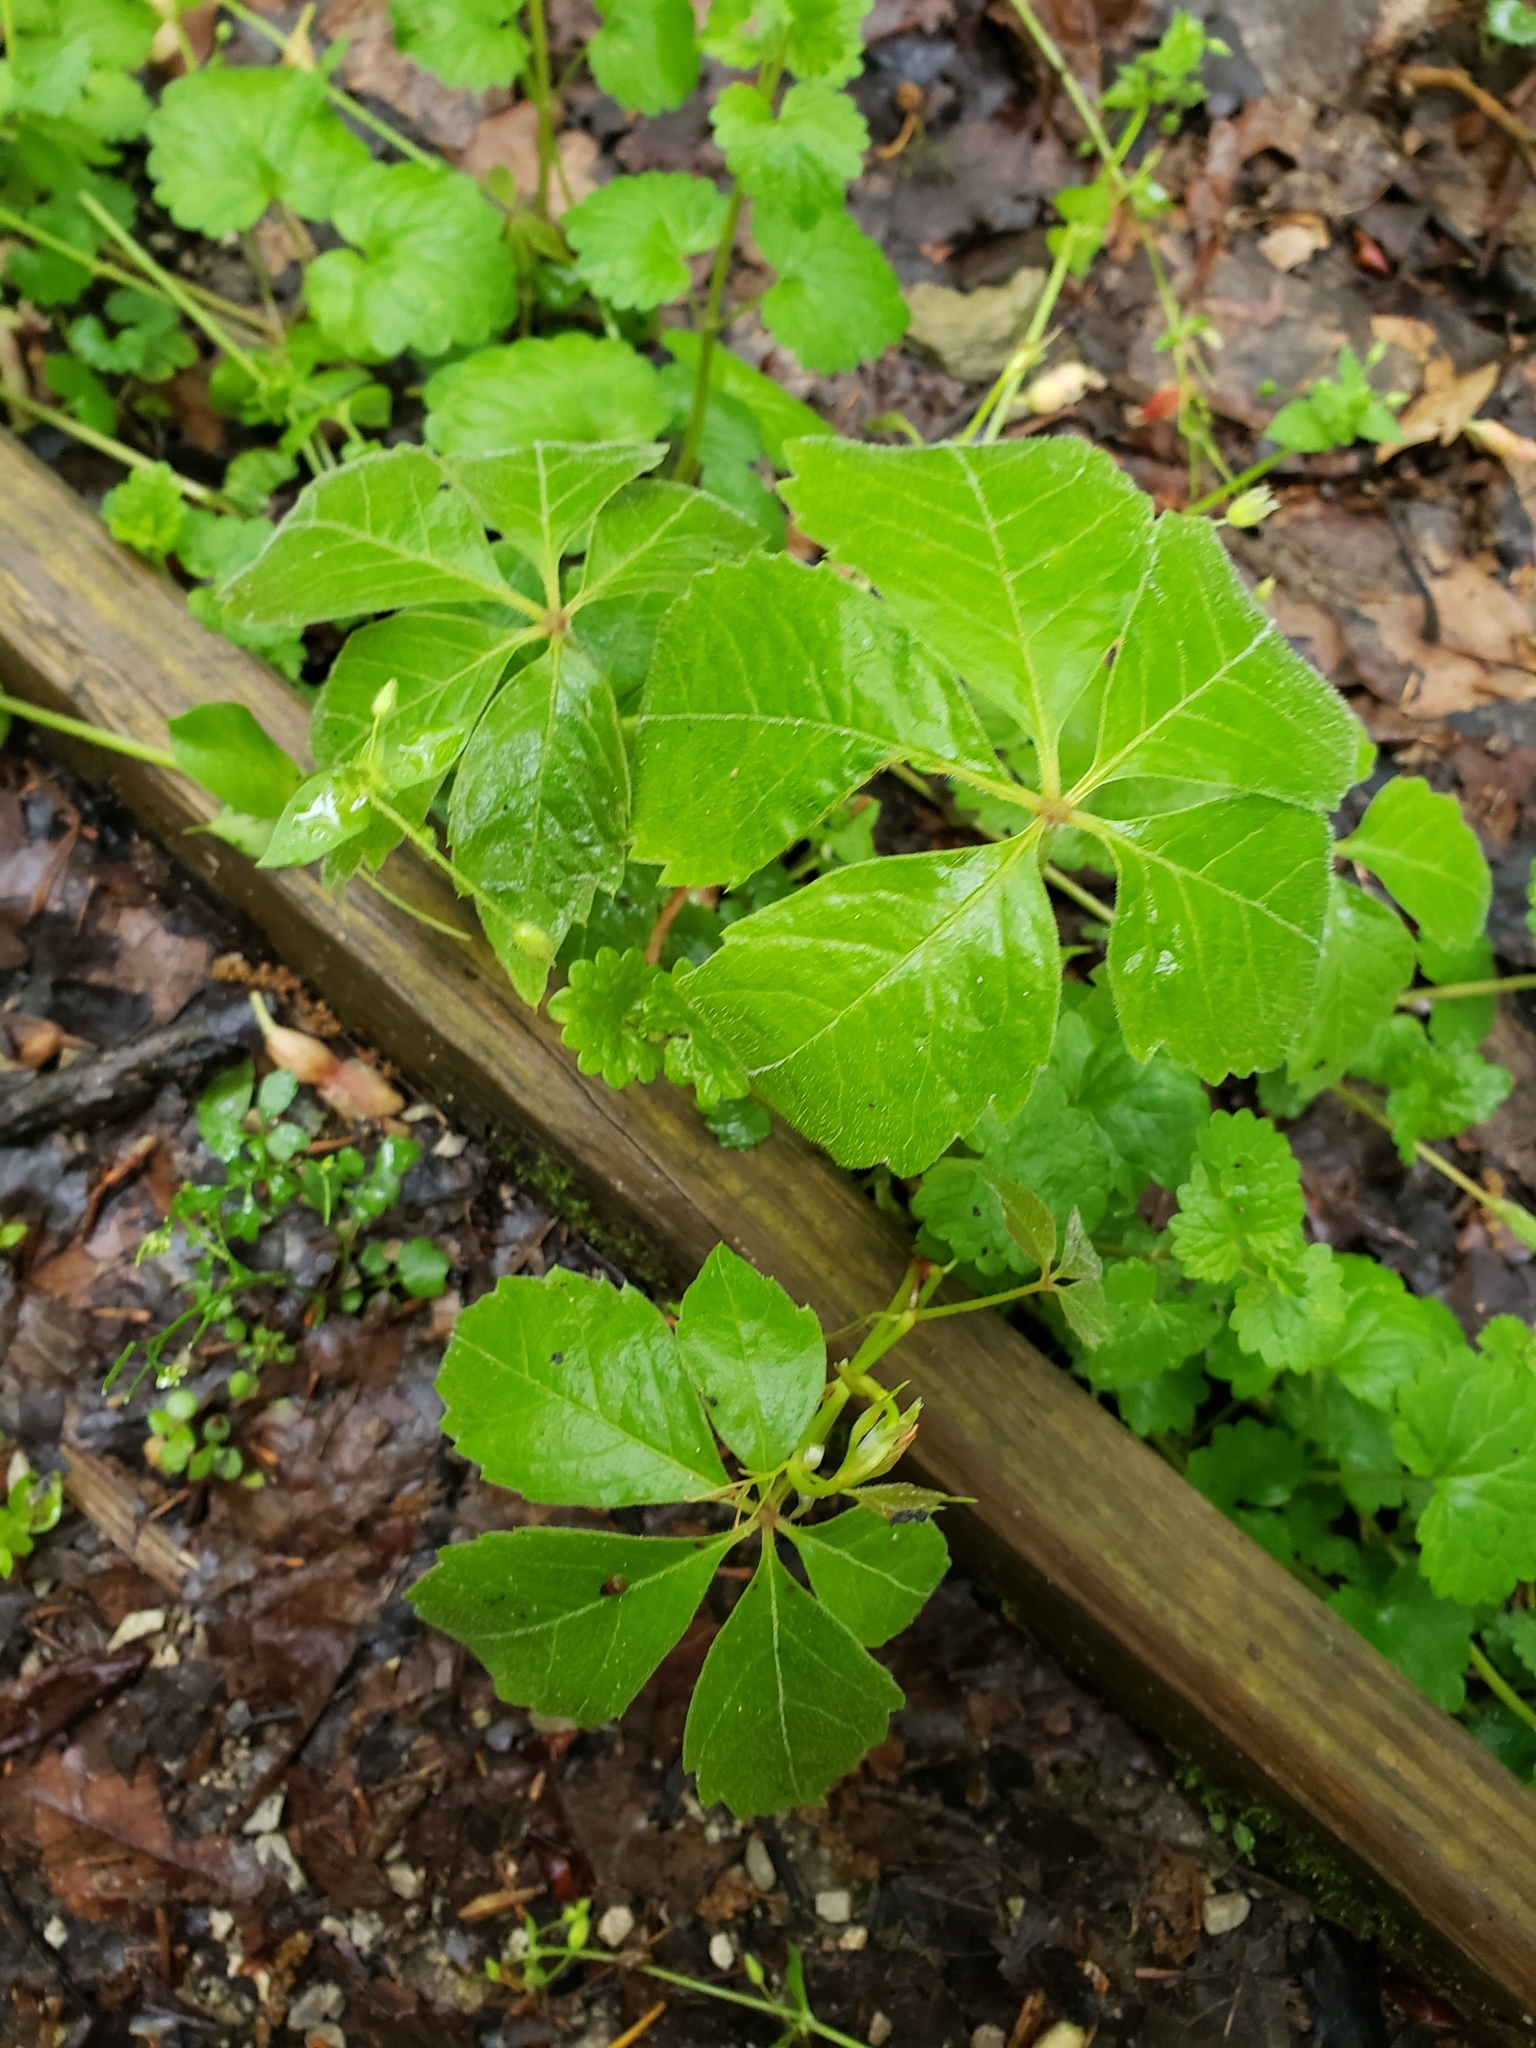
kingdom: Plantae
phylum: Tracheophyta
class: Magnoliopsida
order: Vitales
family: Vitaceae
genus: Parthenocissus
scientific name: Parthenocissus quinquefolia
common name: Virginia-creeper
